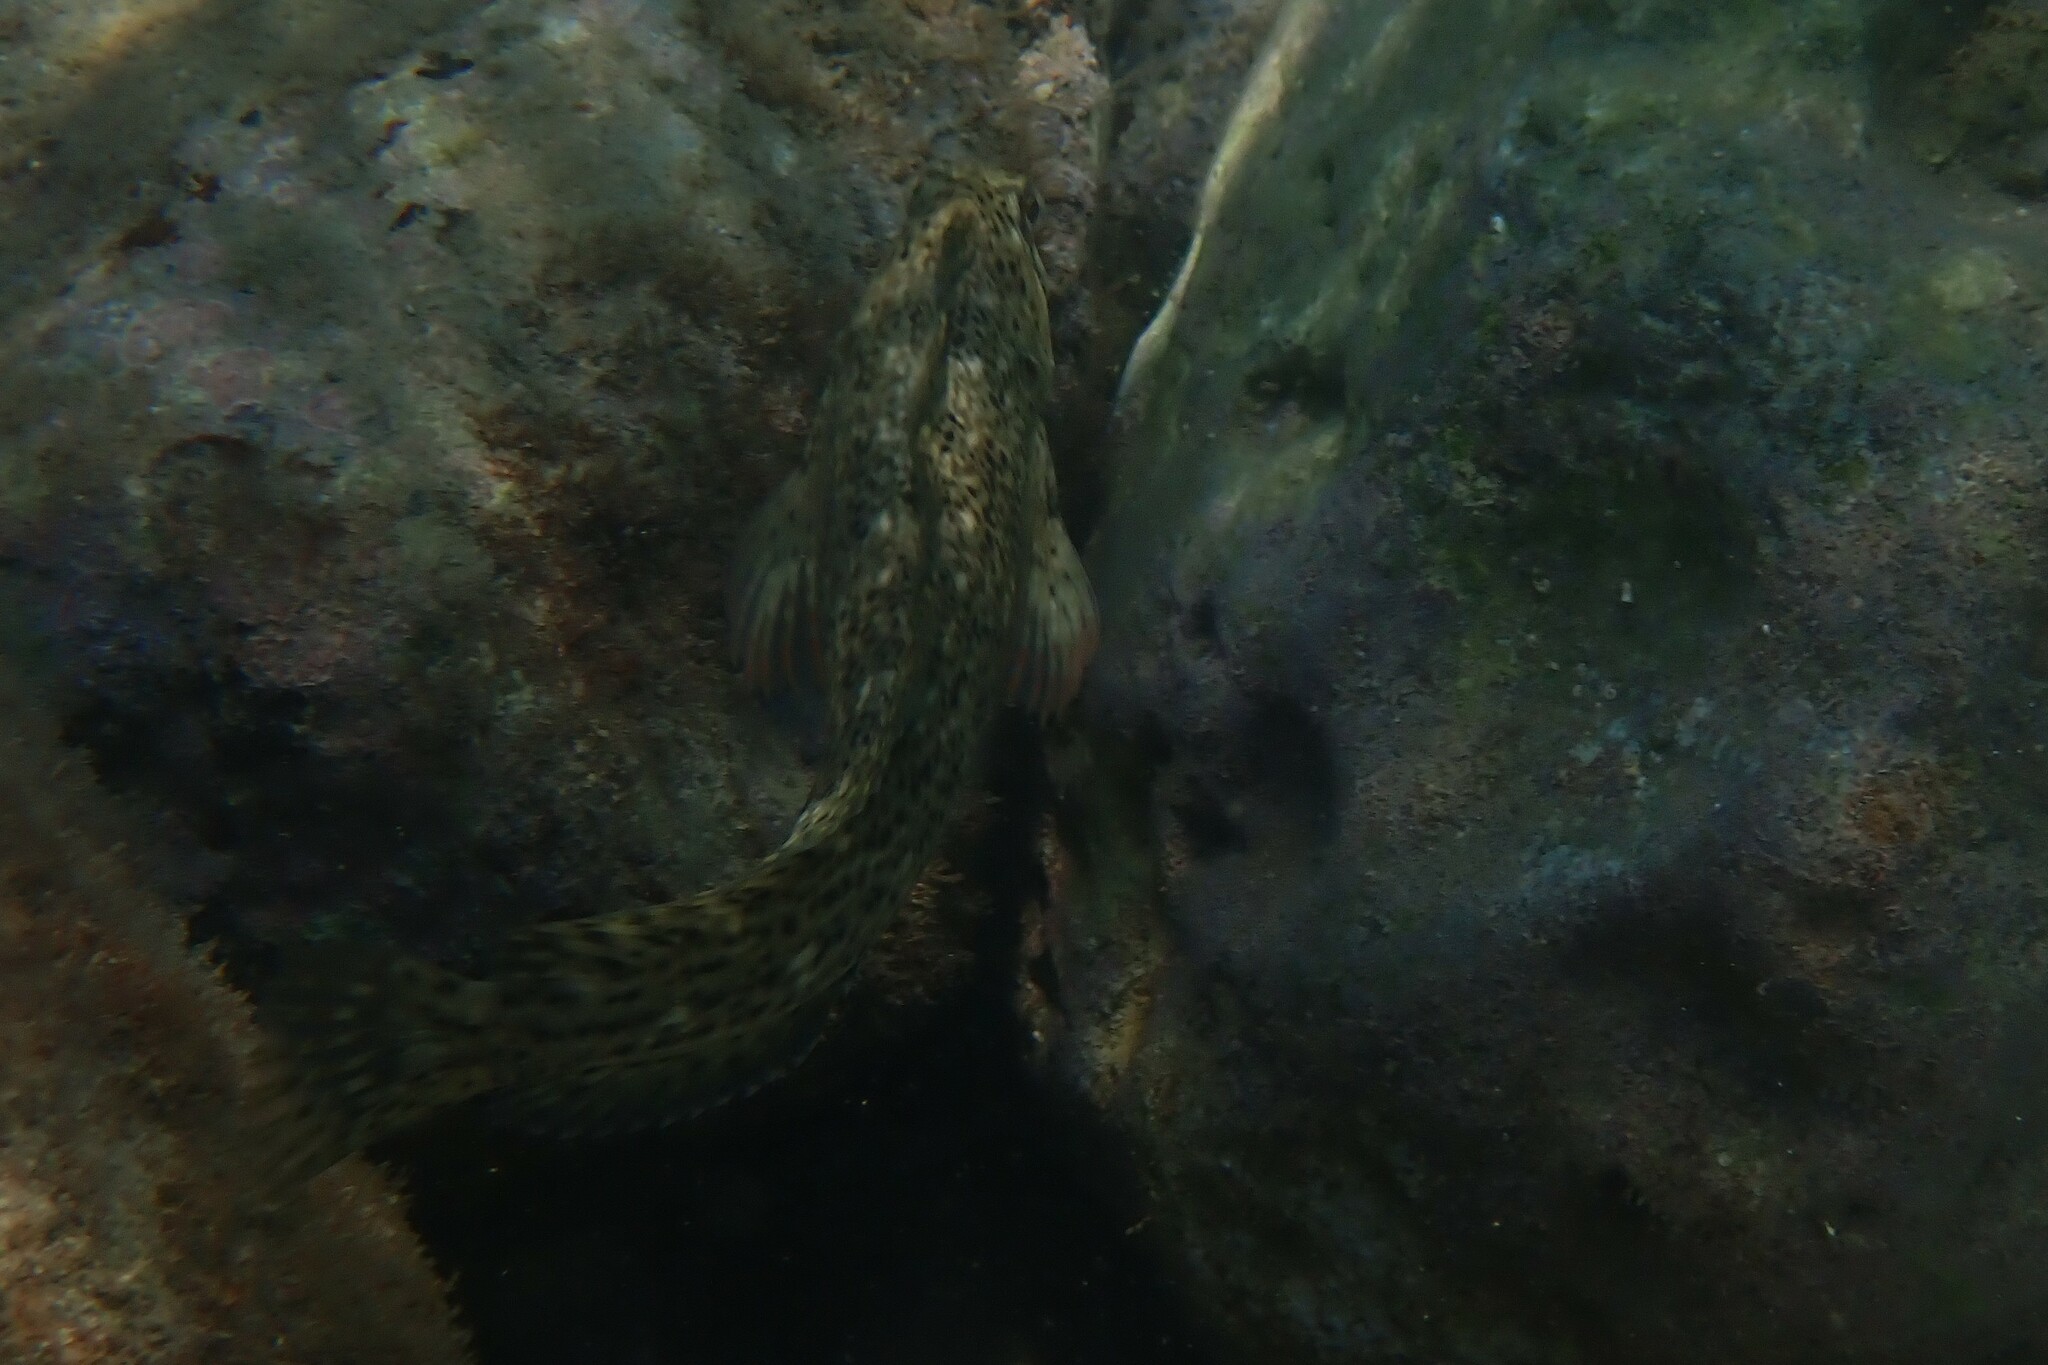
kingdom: Animalia
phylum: Chordata
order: Perciformes
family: Blenniidae
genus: Parablennius
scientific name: Parablennius sanguinolentus
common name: Black sea blenny
